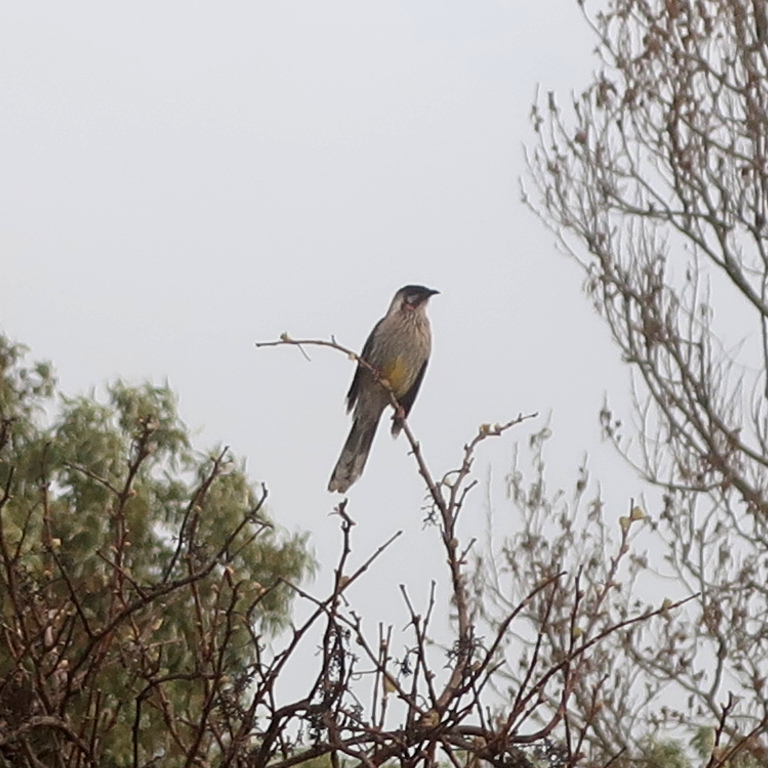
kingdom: Animalia
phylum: Chordata
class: Aves
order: Passeriformes
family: Meliphagidae
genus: Anthochaera
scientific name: Anthochaera carunculata
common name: Red wattlebird
